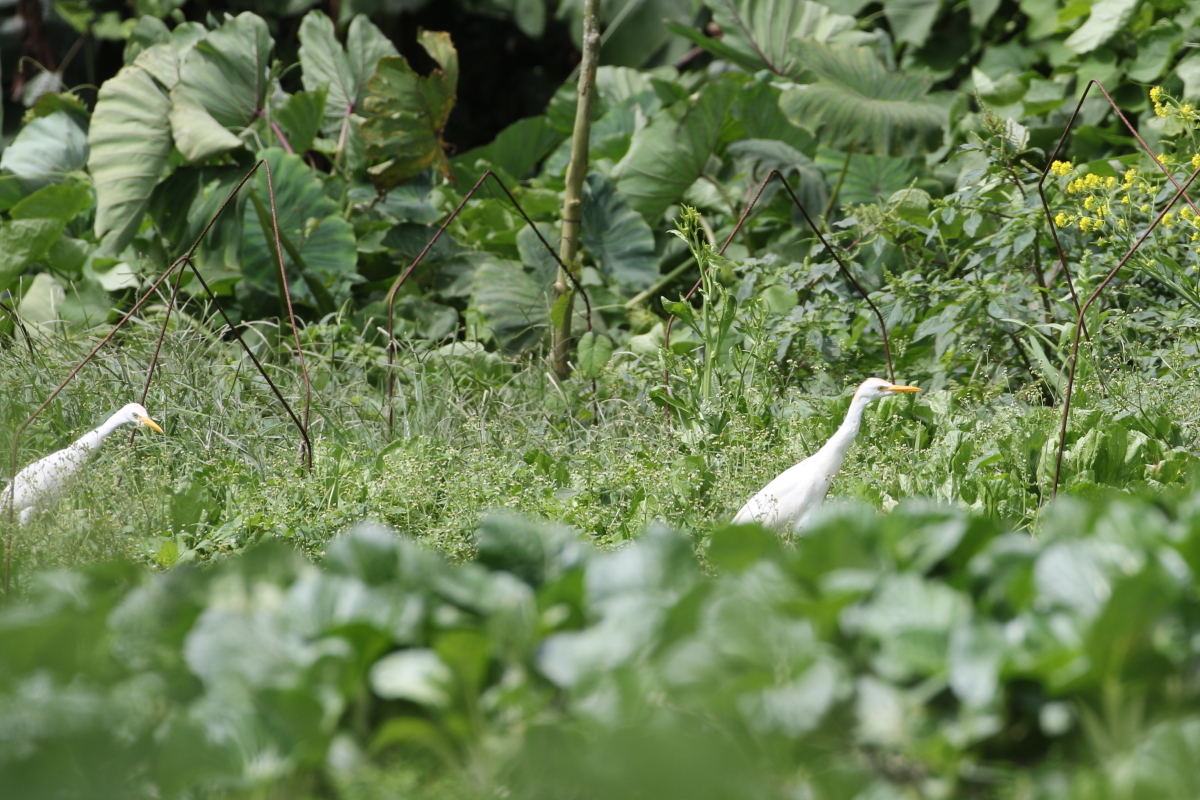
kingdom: Animalia
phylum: Chordata
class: Aves
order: Pelecaniformes
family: Ardeidae
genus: Bubulcus
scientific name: Bubulcus ibis
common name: Cattle egret
